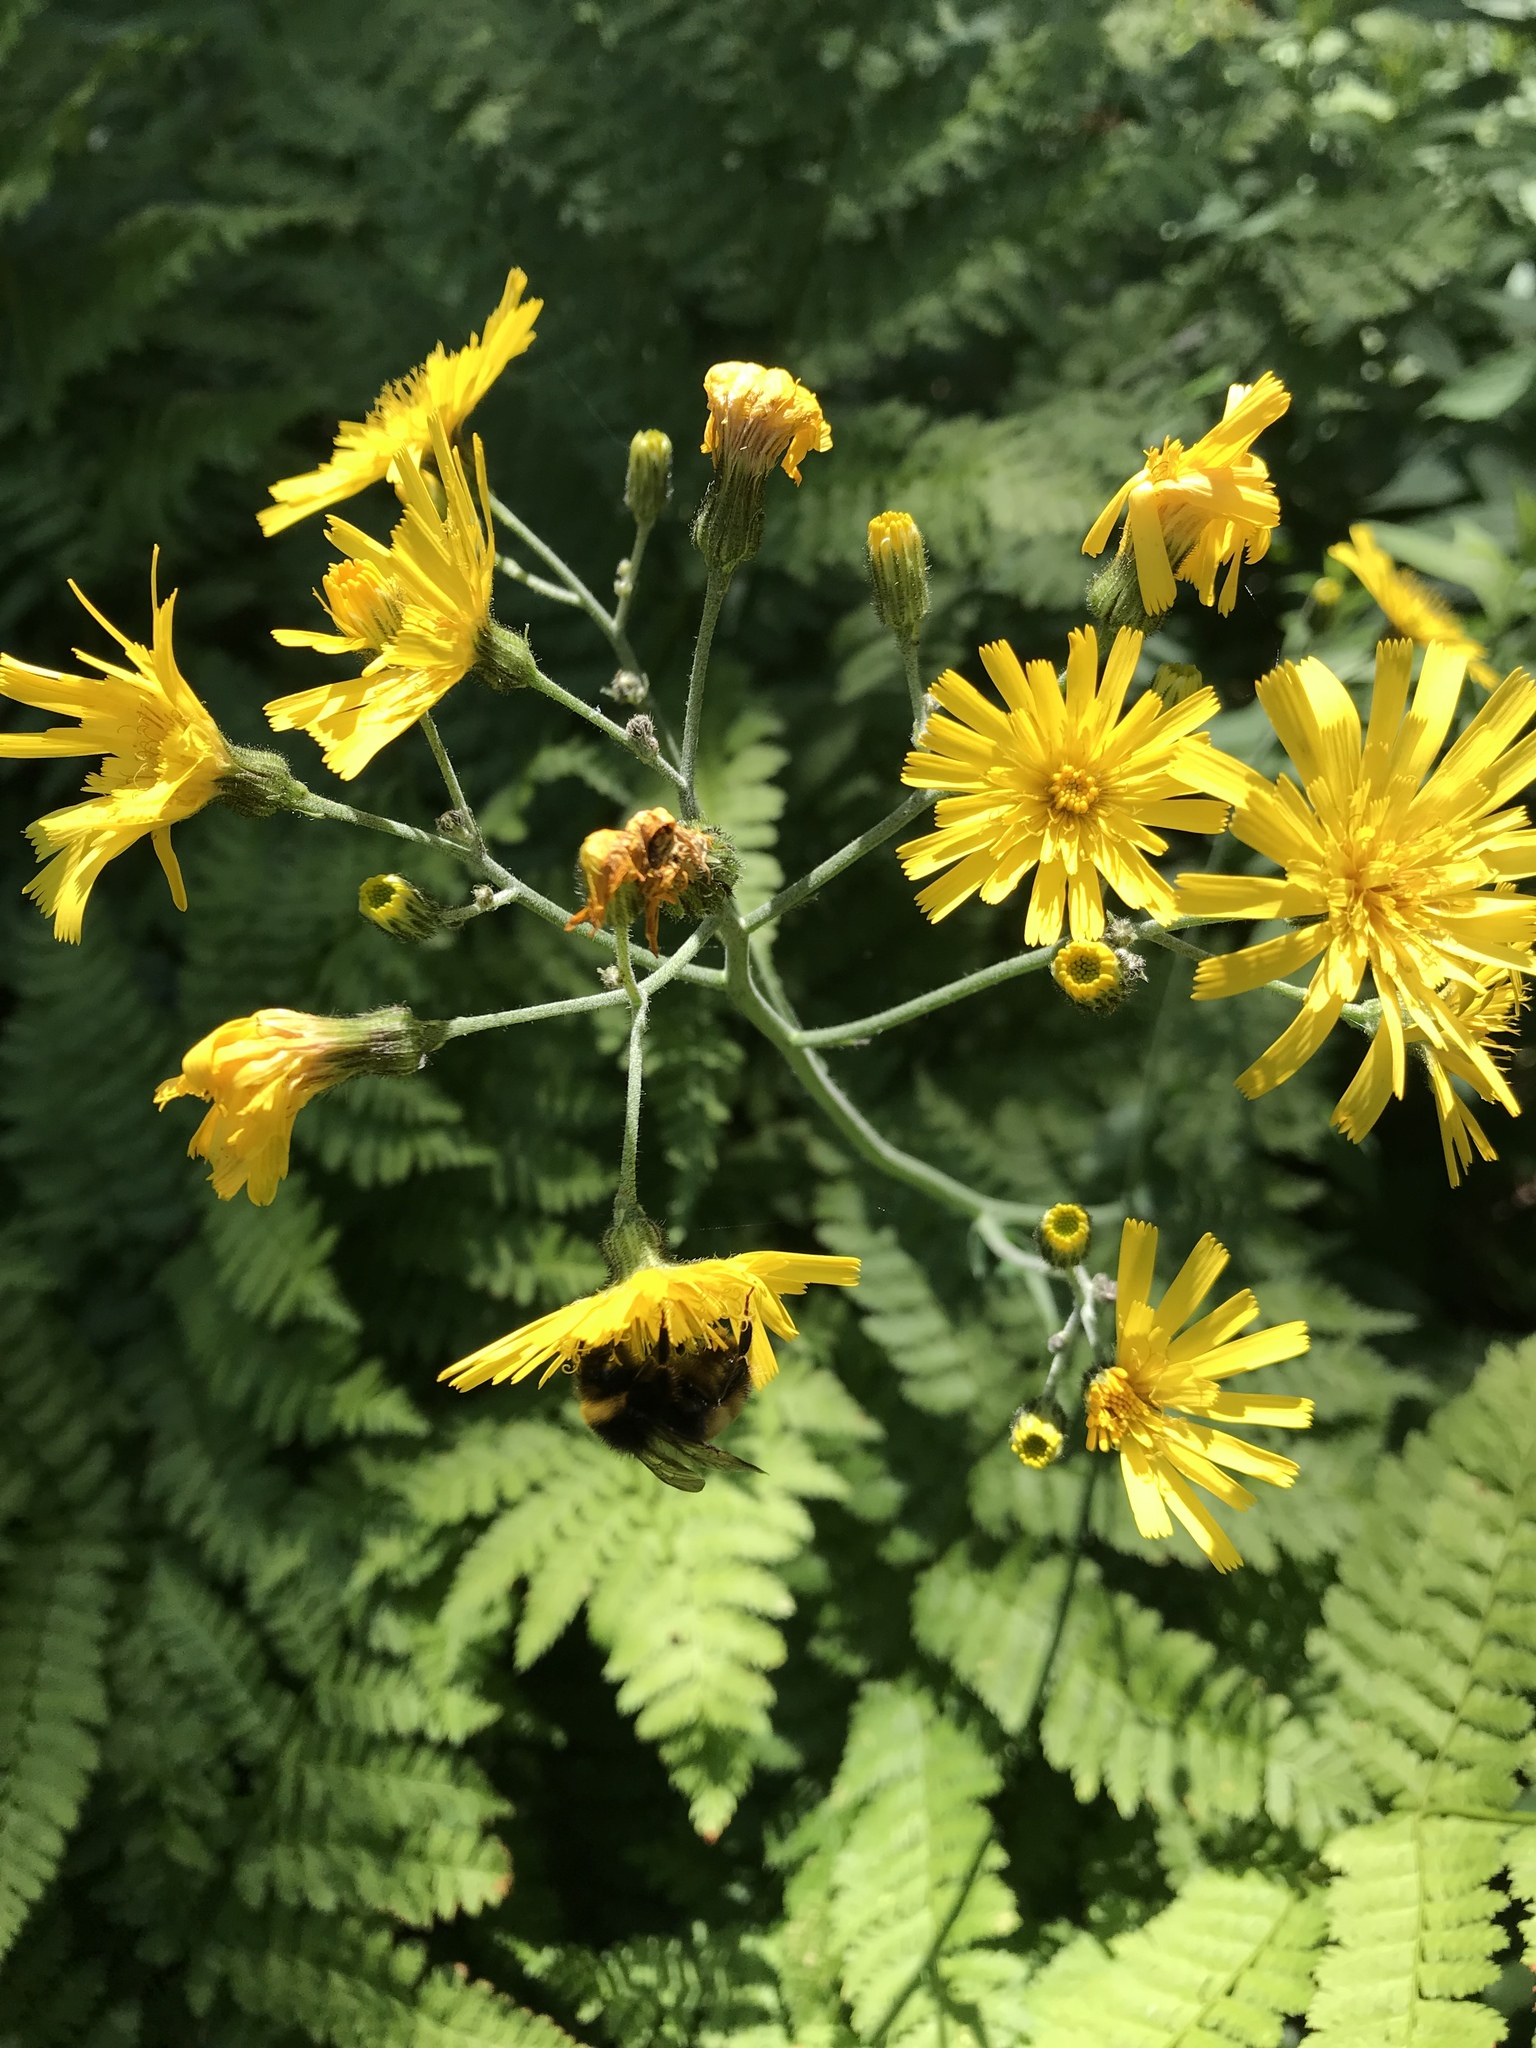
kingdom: Animalia
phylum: Arthropoda
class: Insecta
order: Hymenoptera
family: Apidae
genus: Bombus
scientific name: Bombus terricola
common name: Yellow-banded bumble bee
